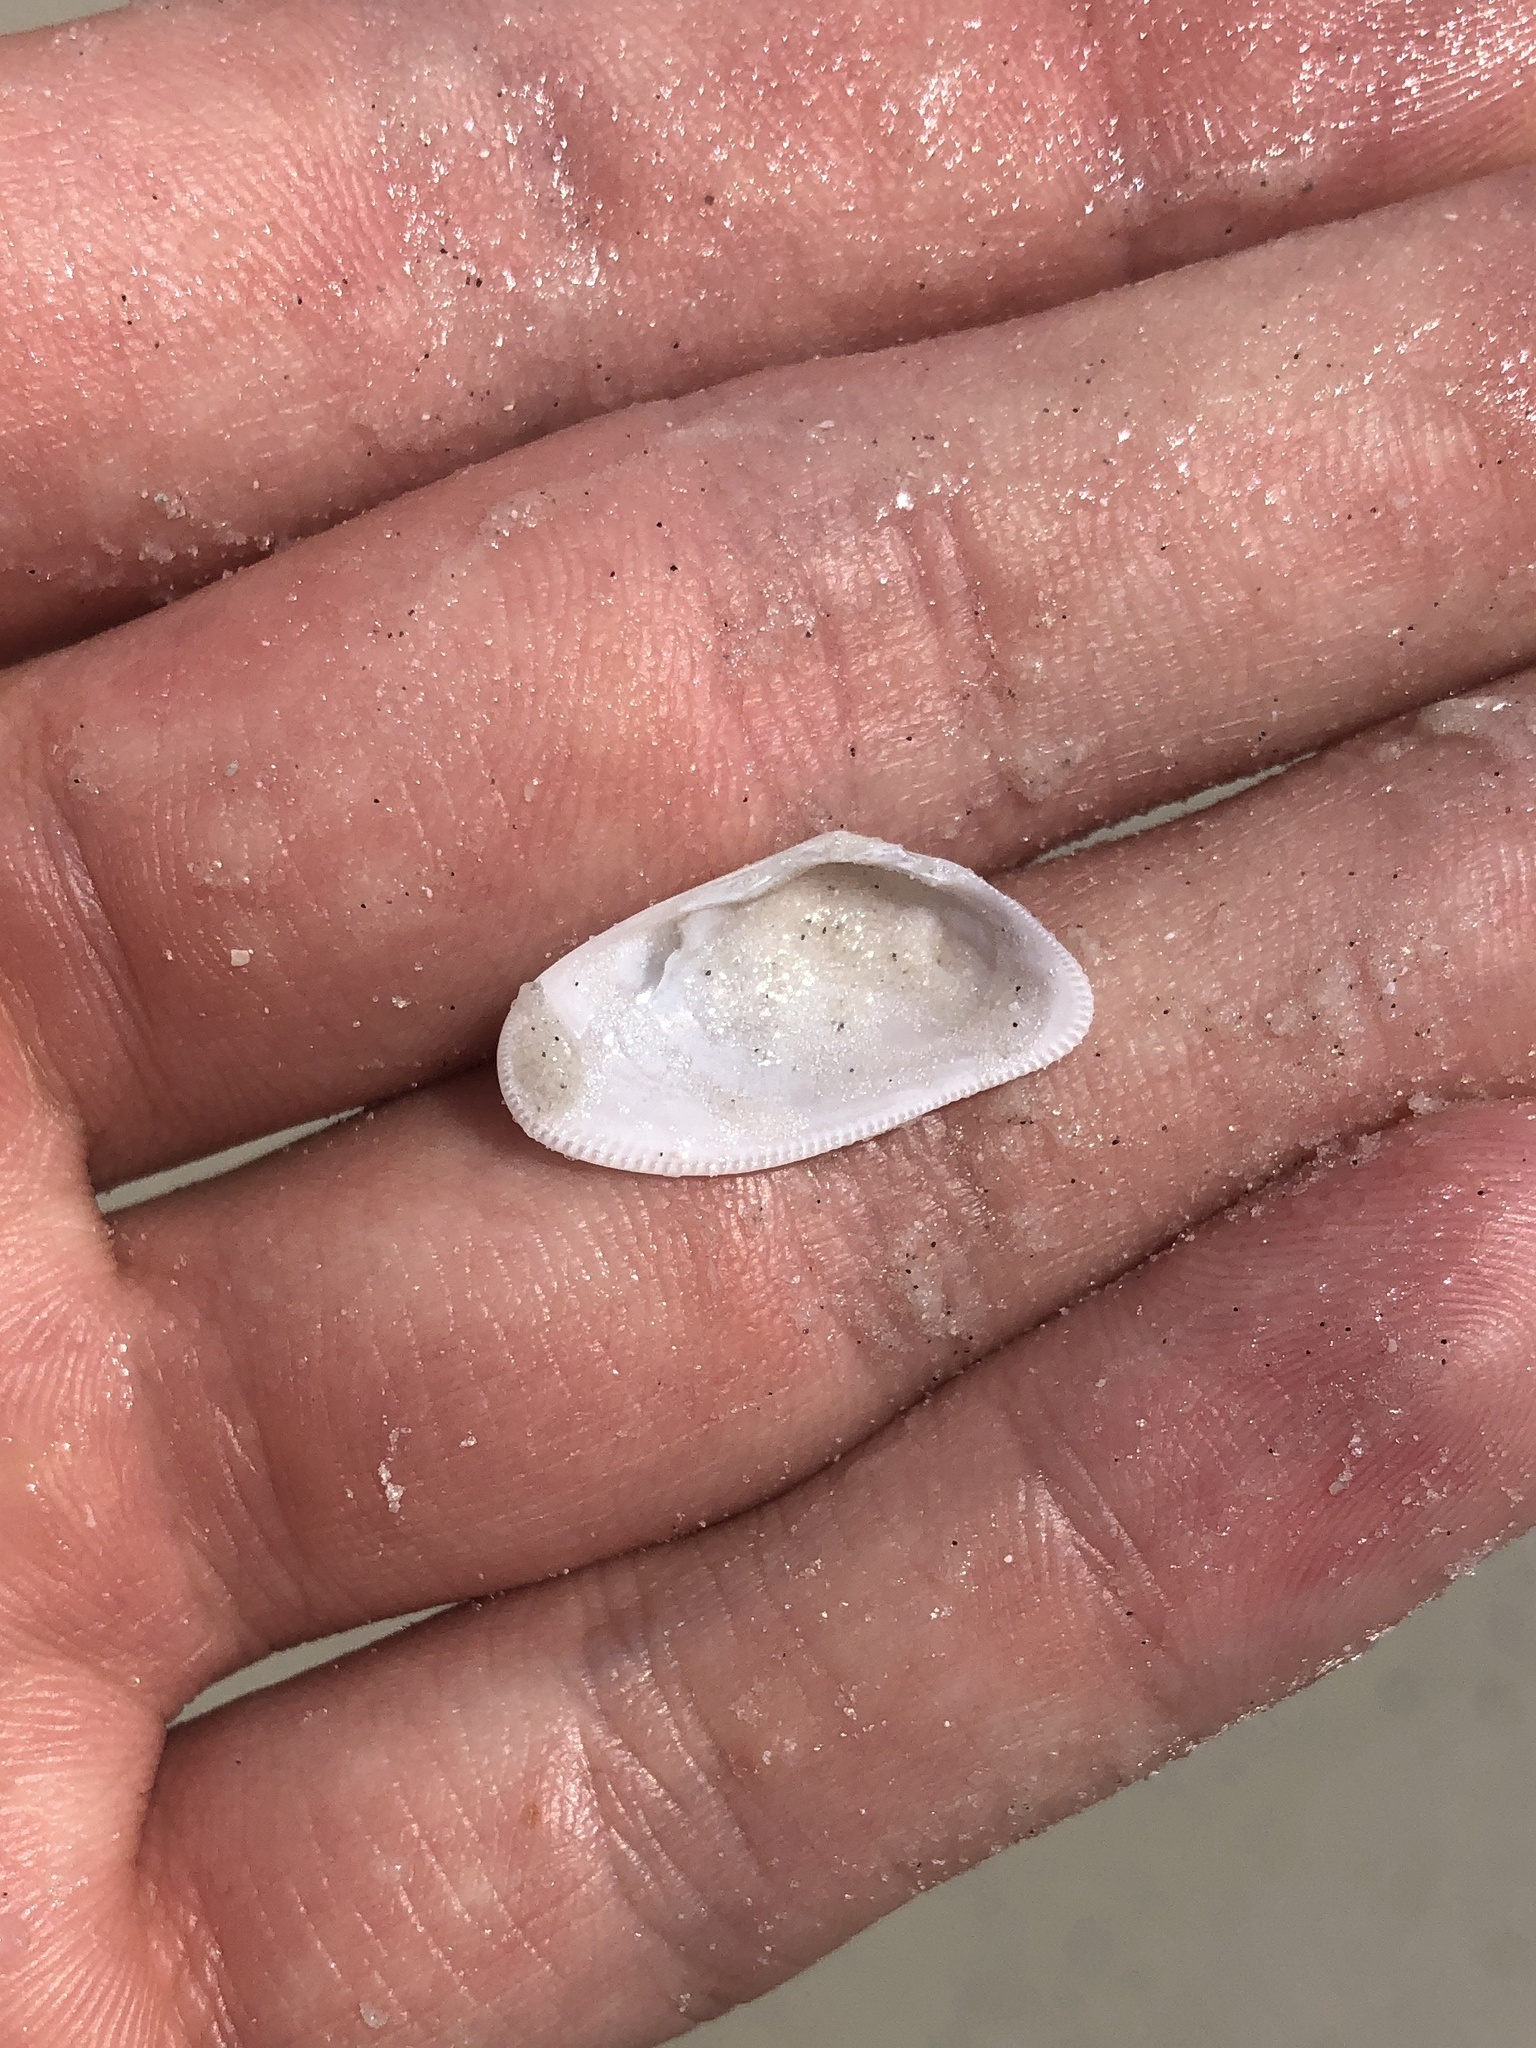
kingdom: Animalia
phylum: Mollusca
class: Bivalvia
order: Cardiida
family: Donacidae
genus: Donax
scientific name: Donax variabilis
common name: Butterfly shell
